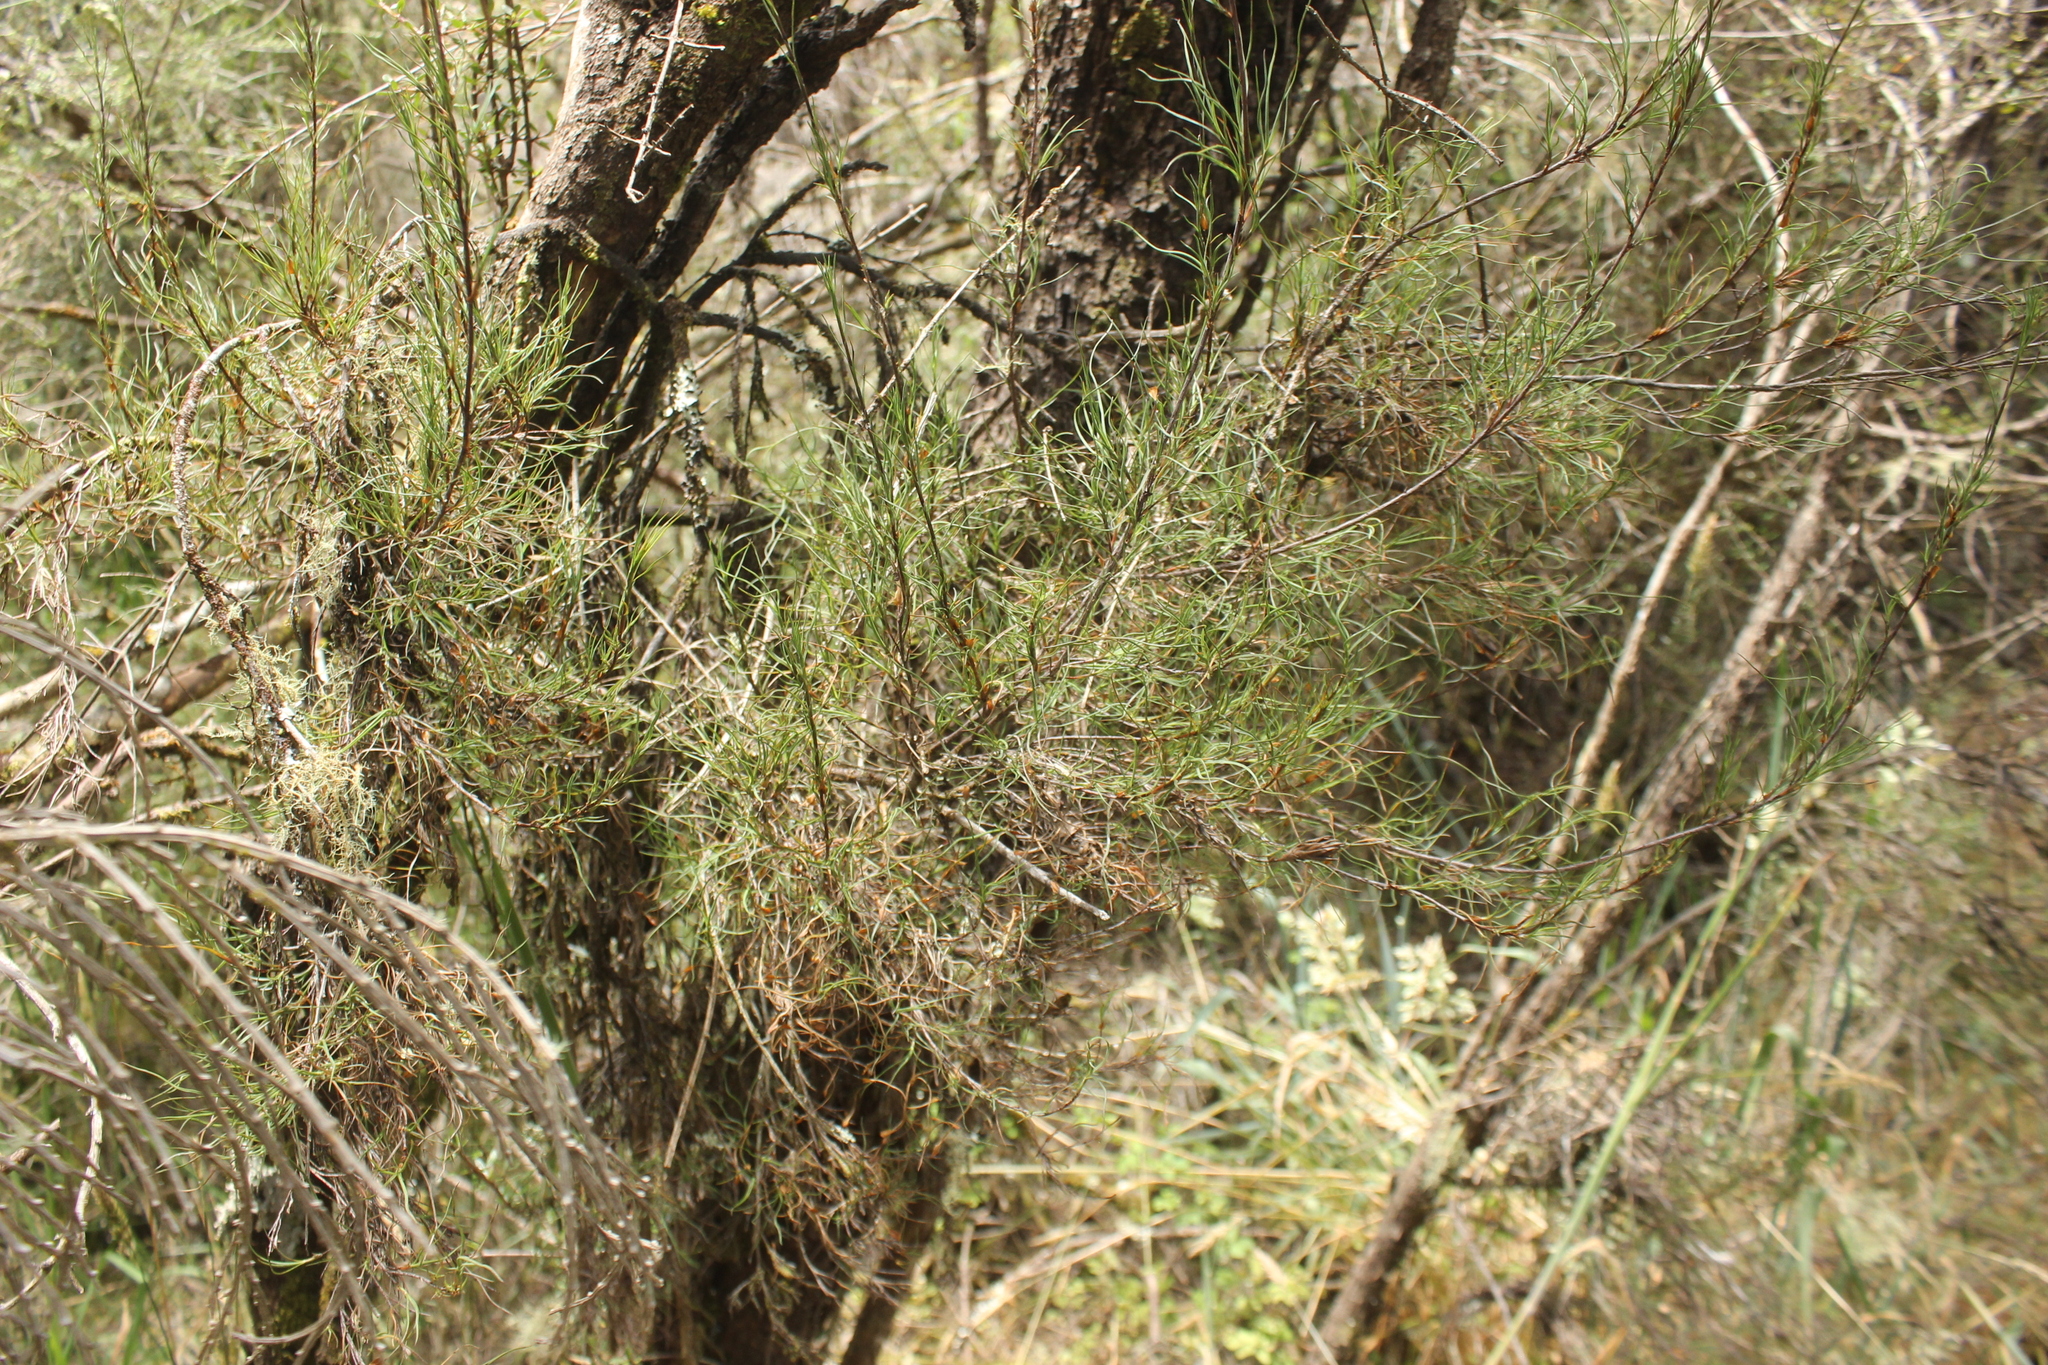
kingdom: Plantae
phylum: Tracheophyta
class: Magnoliopsida
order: Ericales
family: Ericaceae
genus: Dracophyllum
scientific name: Dracophyllum subulatum
